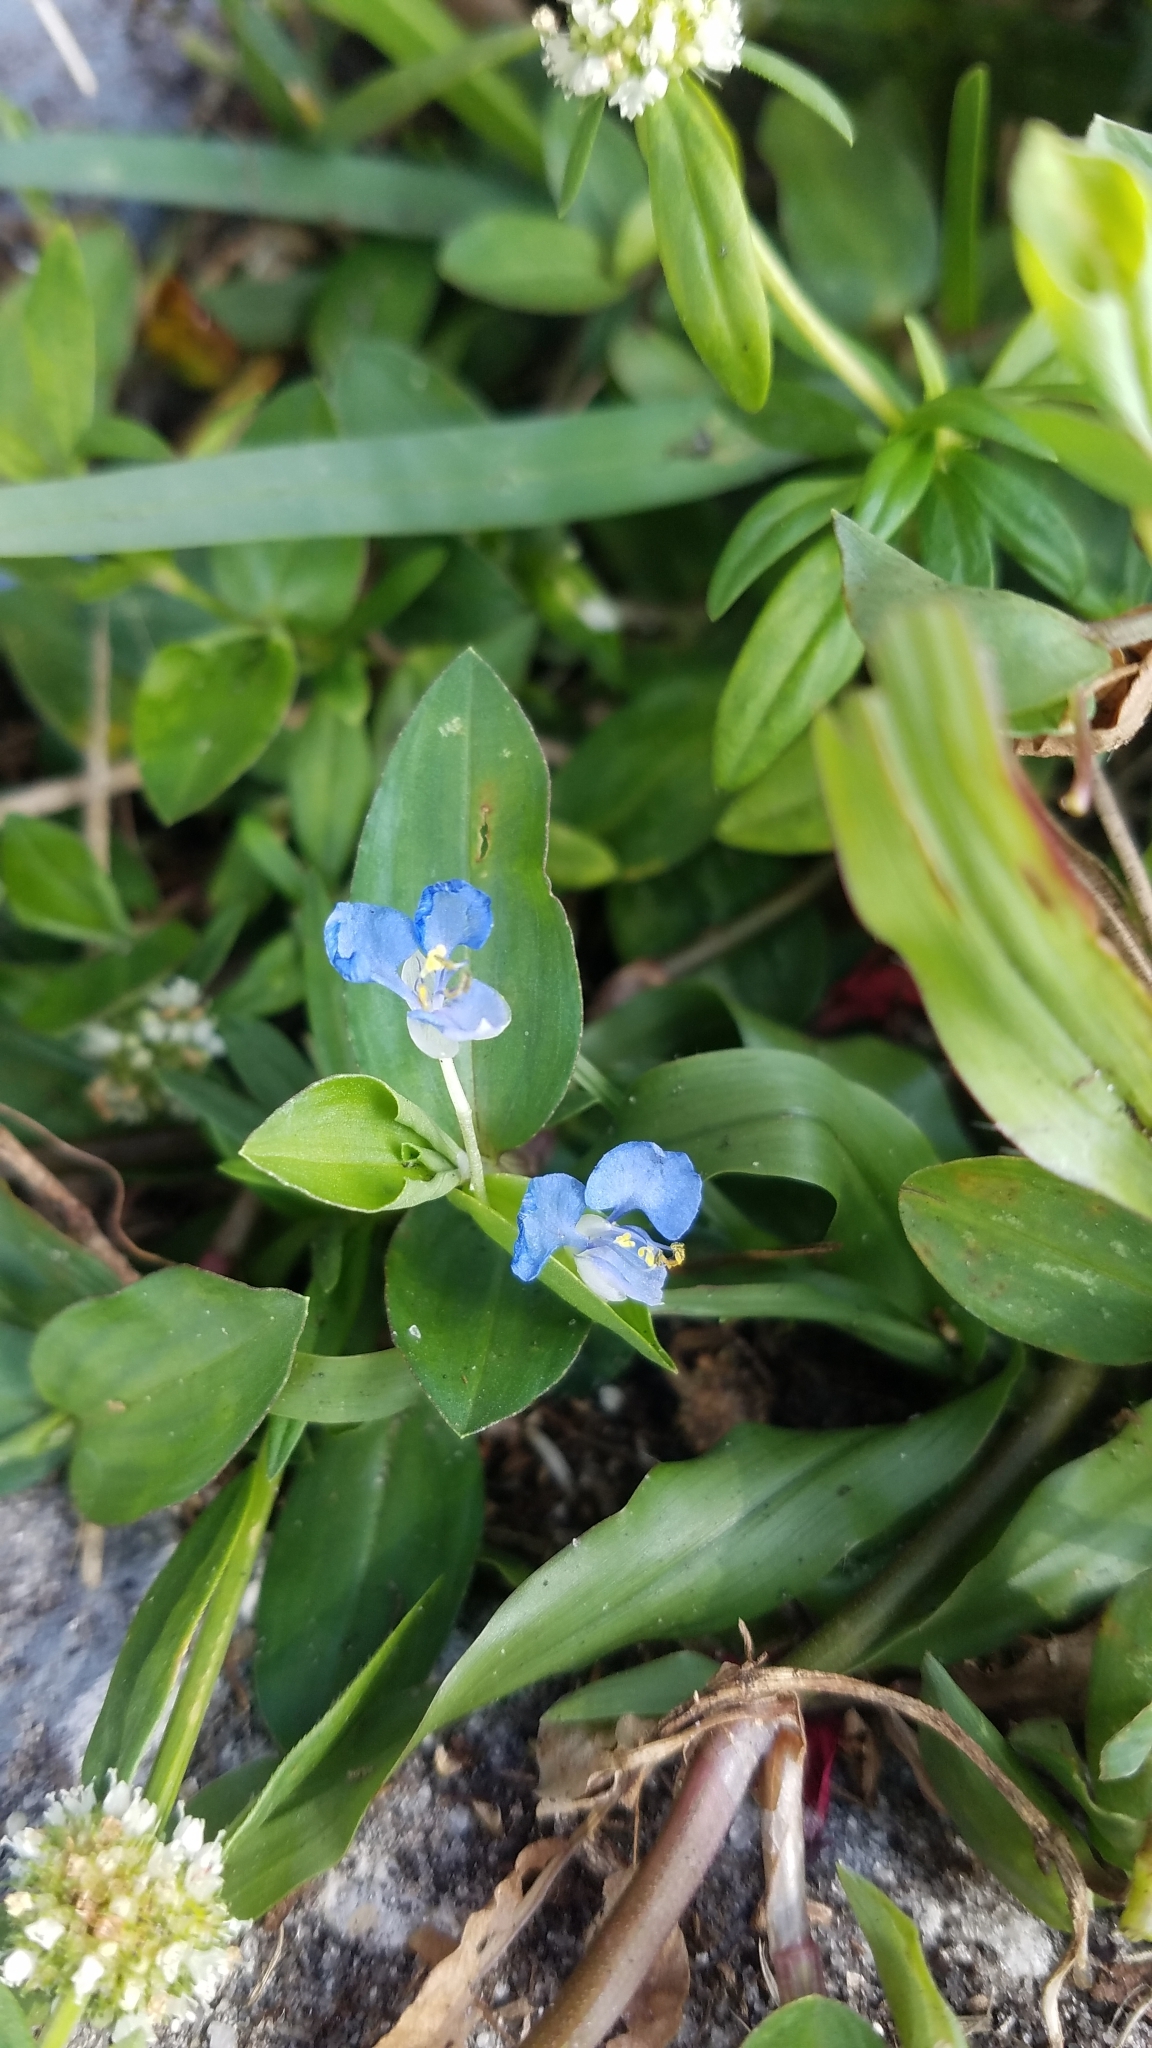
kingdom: Plantae
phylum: Tracheophyta
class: Liliopsida
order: Commelinales
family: Commelinaceae
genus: Commelina
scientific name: Commelina diffusa
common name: Climbing dayflower
